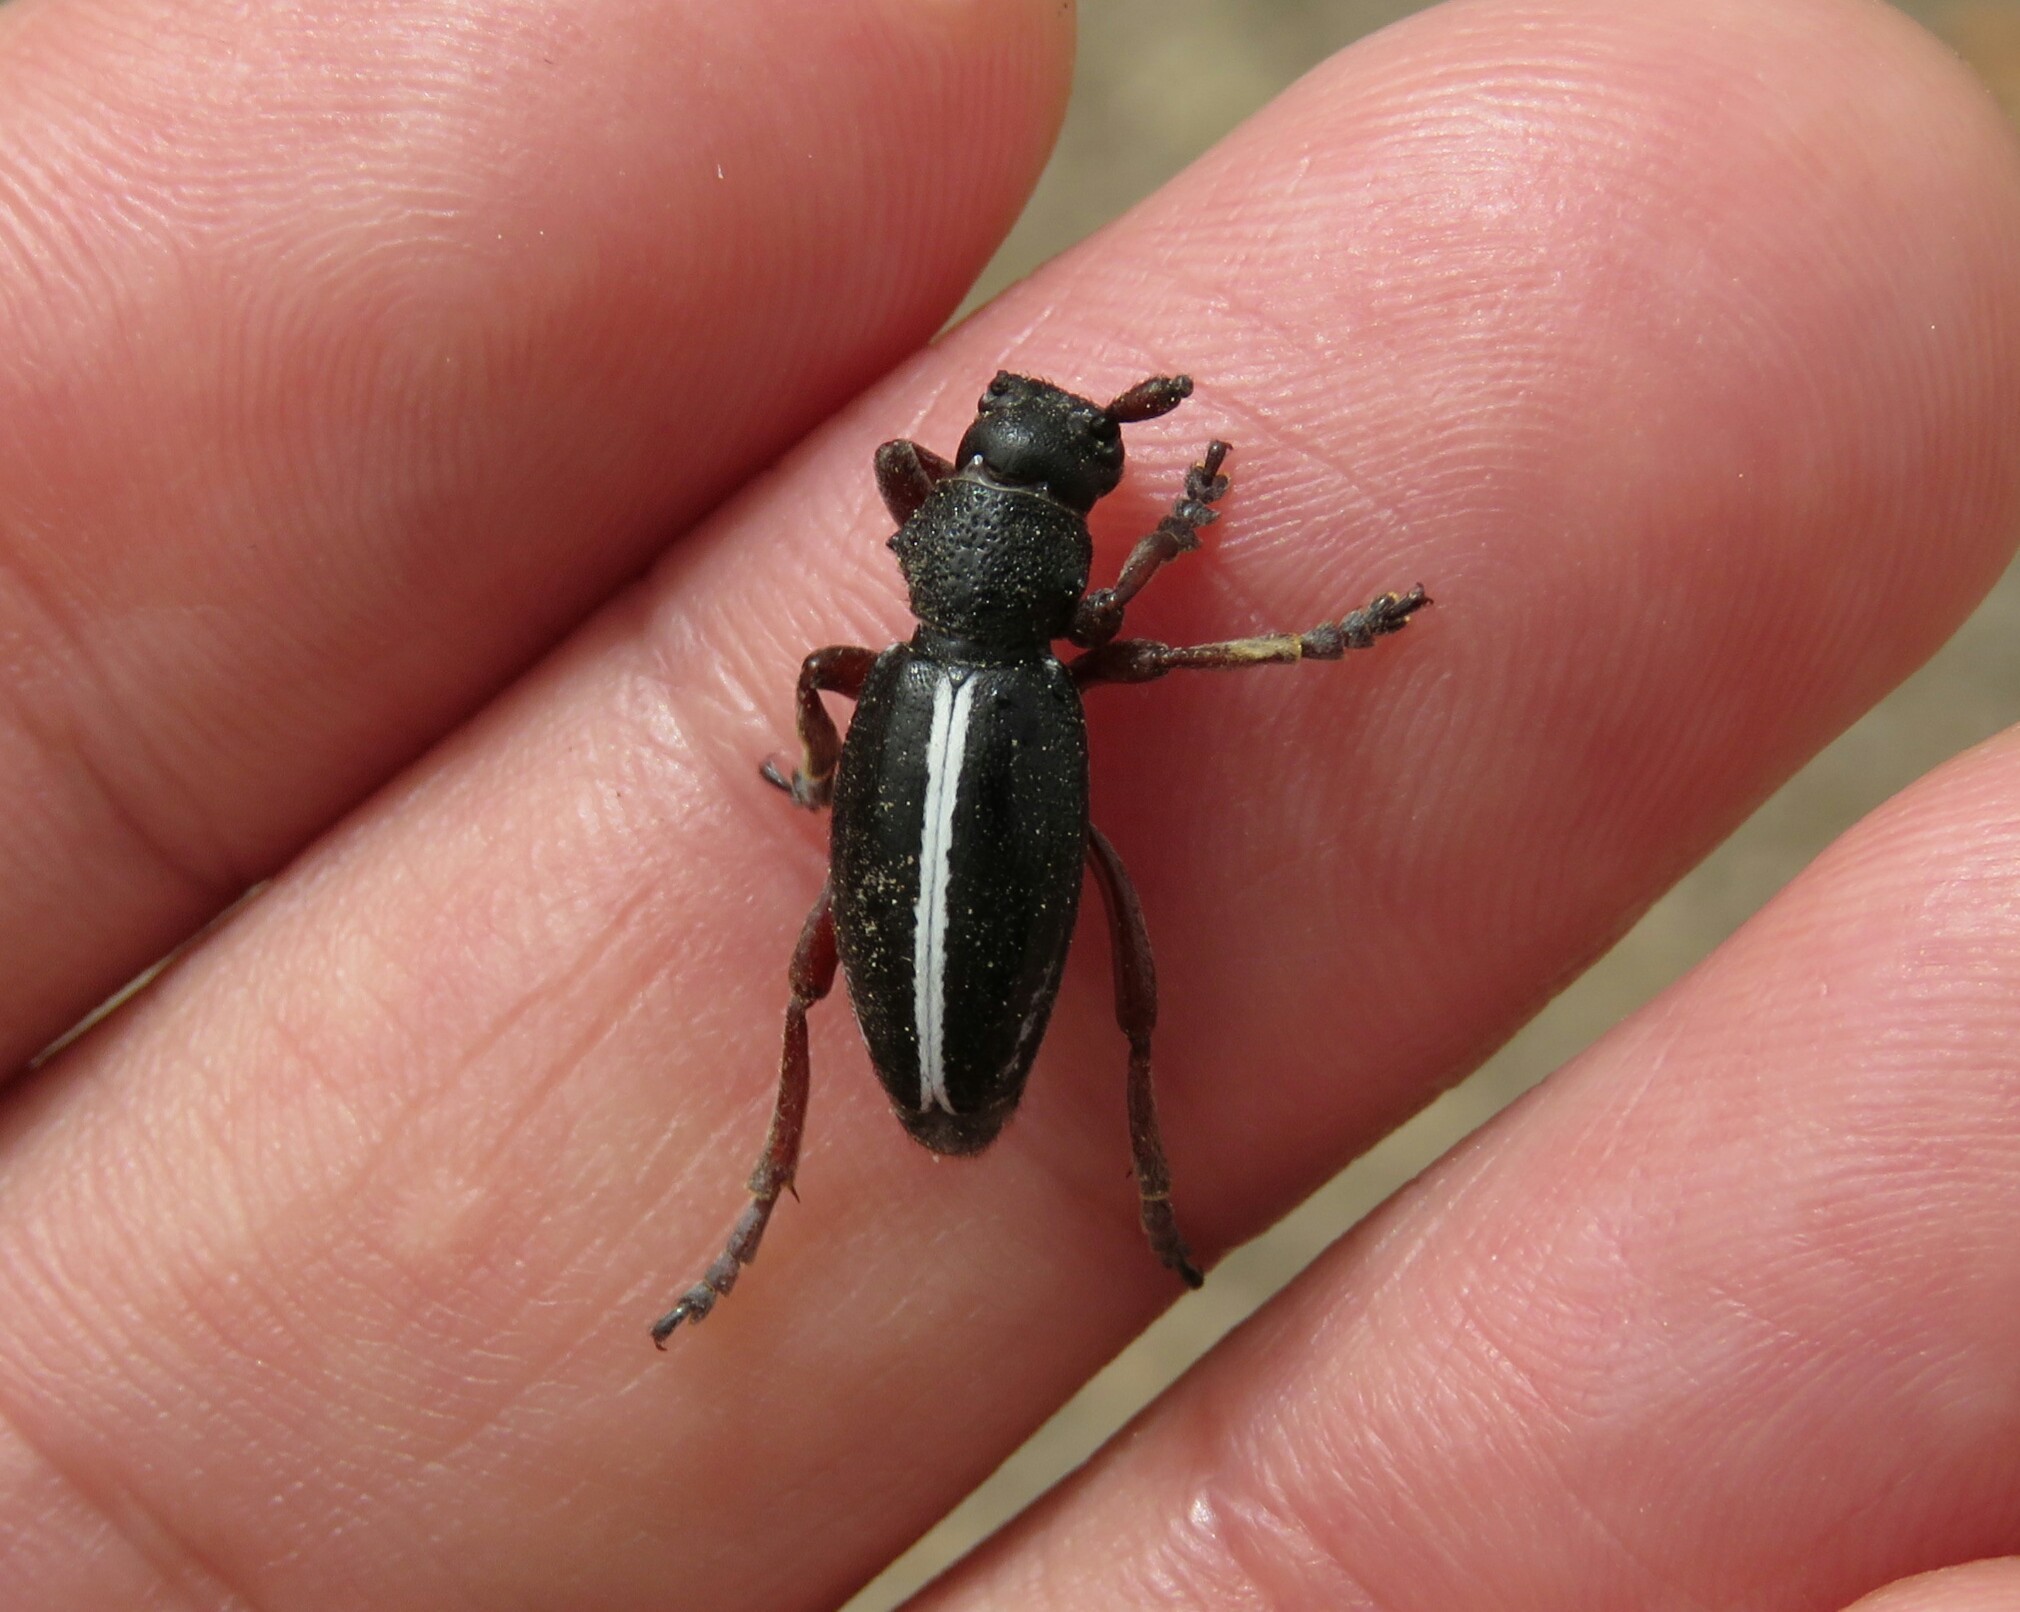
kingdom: Animalia
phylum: Arthropoda
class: Insecta
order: Coleoptera
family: Cerambycidae
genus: Dorcadion
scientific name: Dorcadion pilosellum
